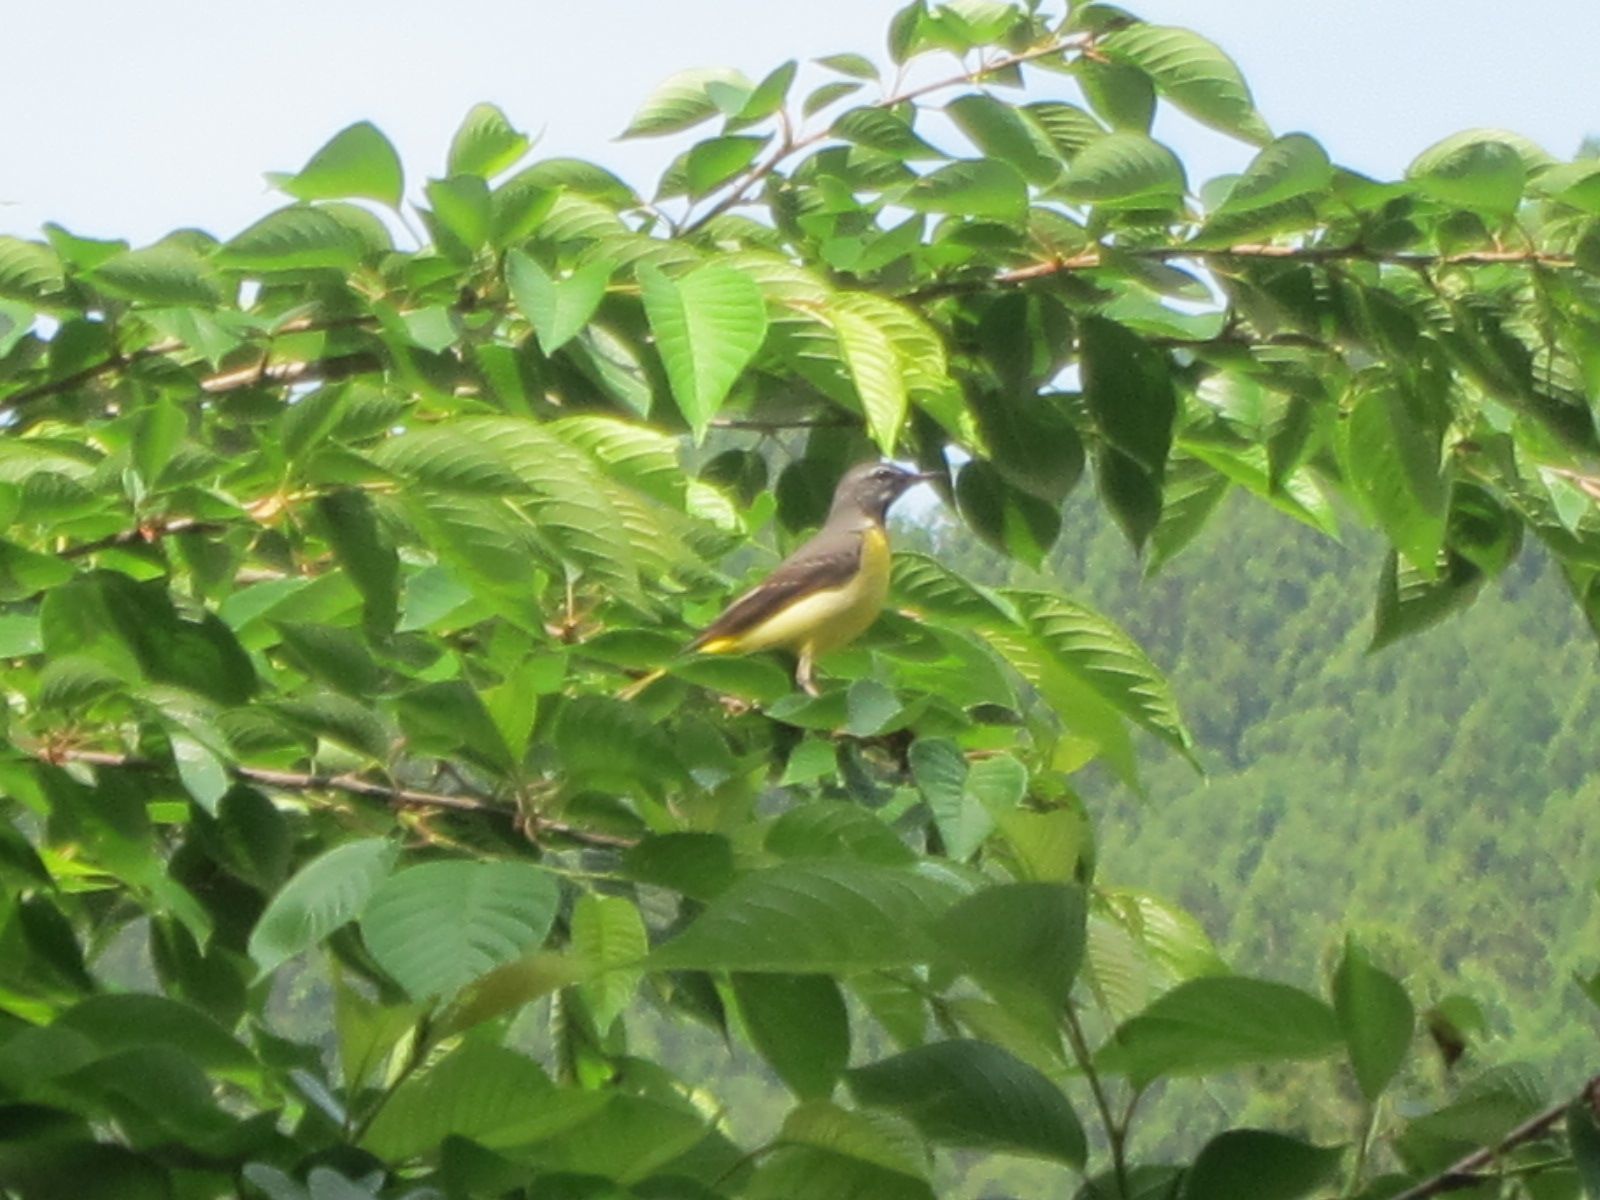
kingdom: Animalia
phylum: Chordata
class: Aves
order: Passeriformes
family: Motacillidae
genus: Motacilla
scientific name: Motacilla cinerea
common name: Grey wagtail
